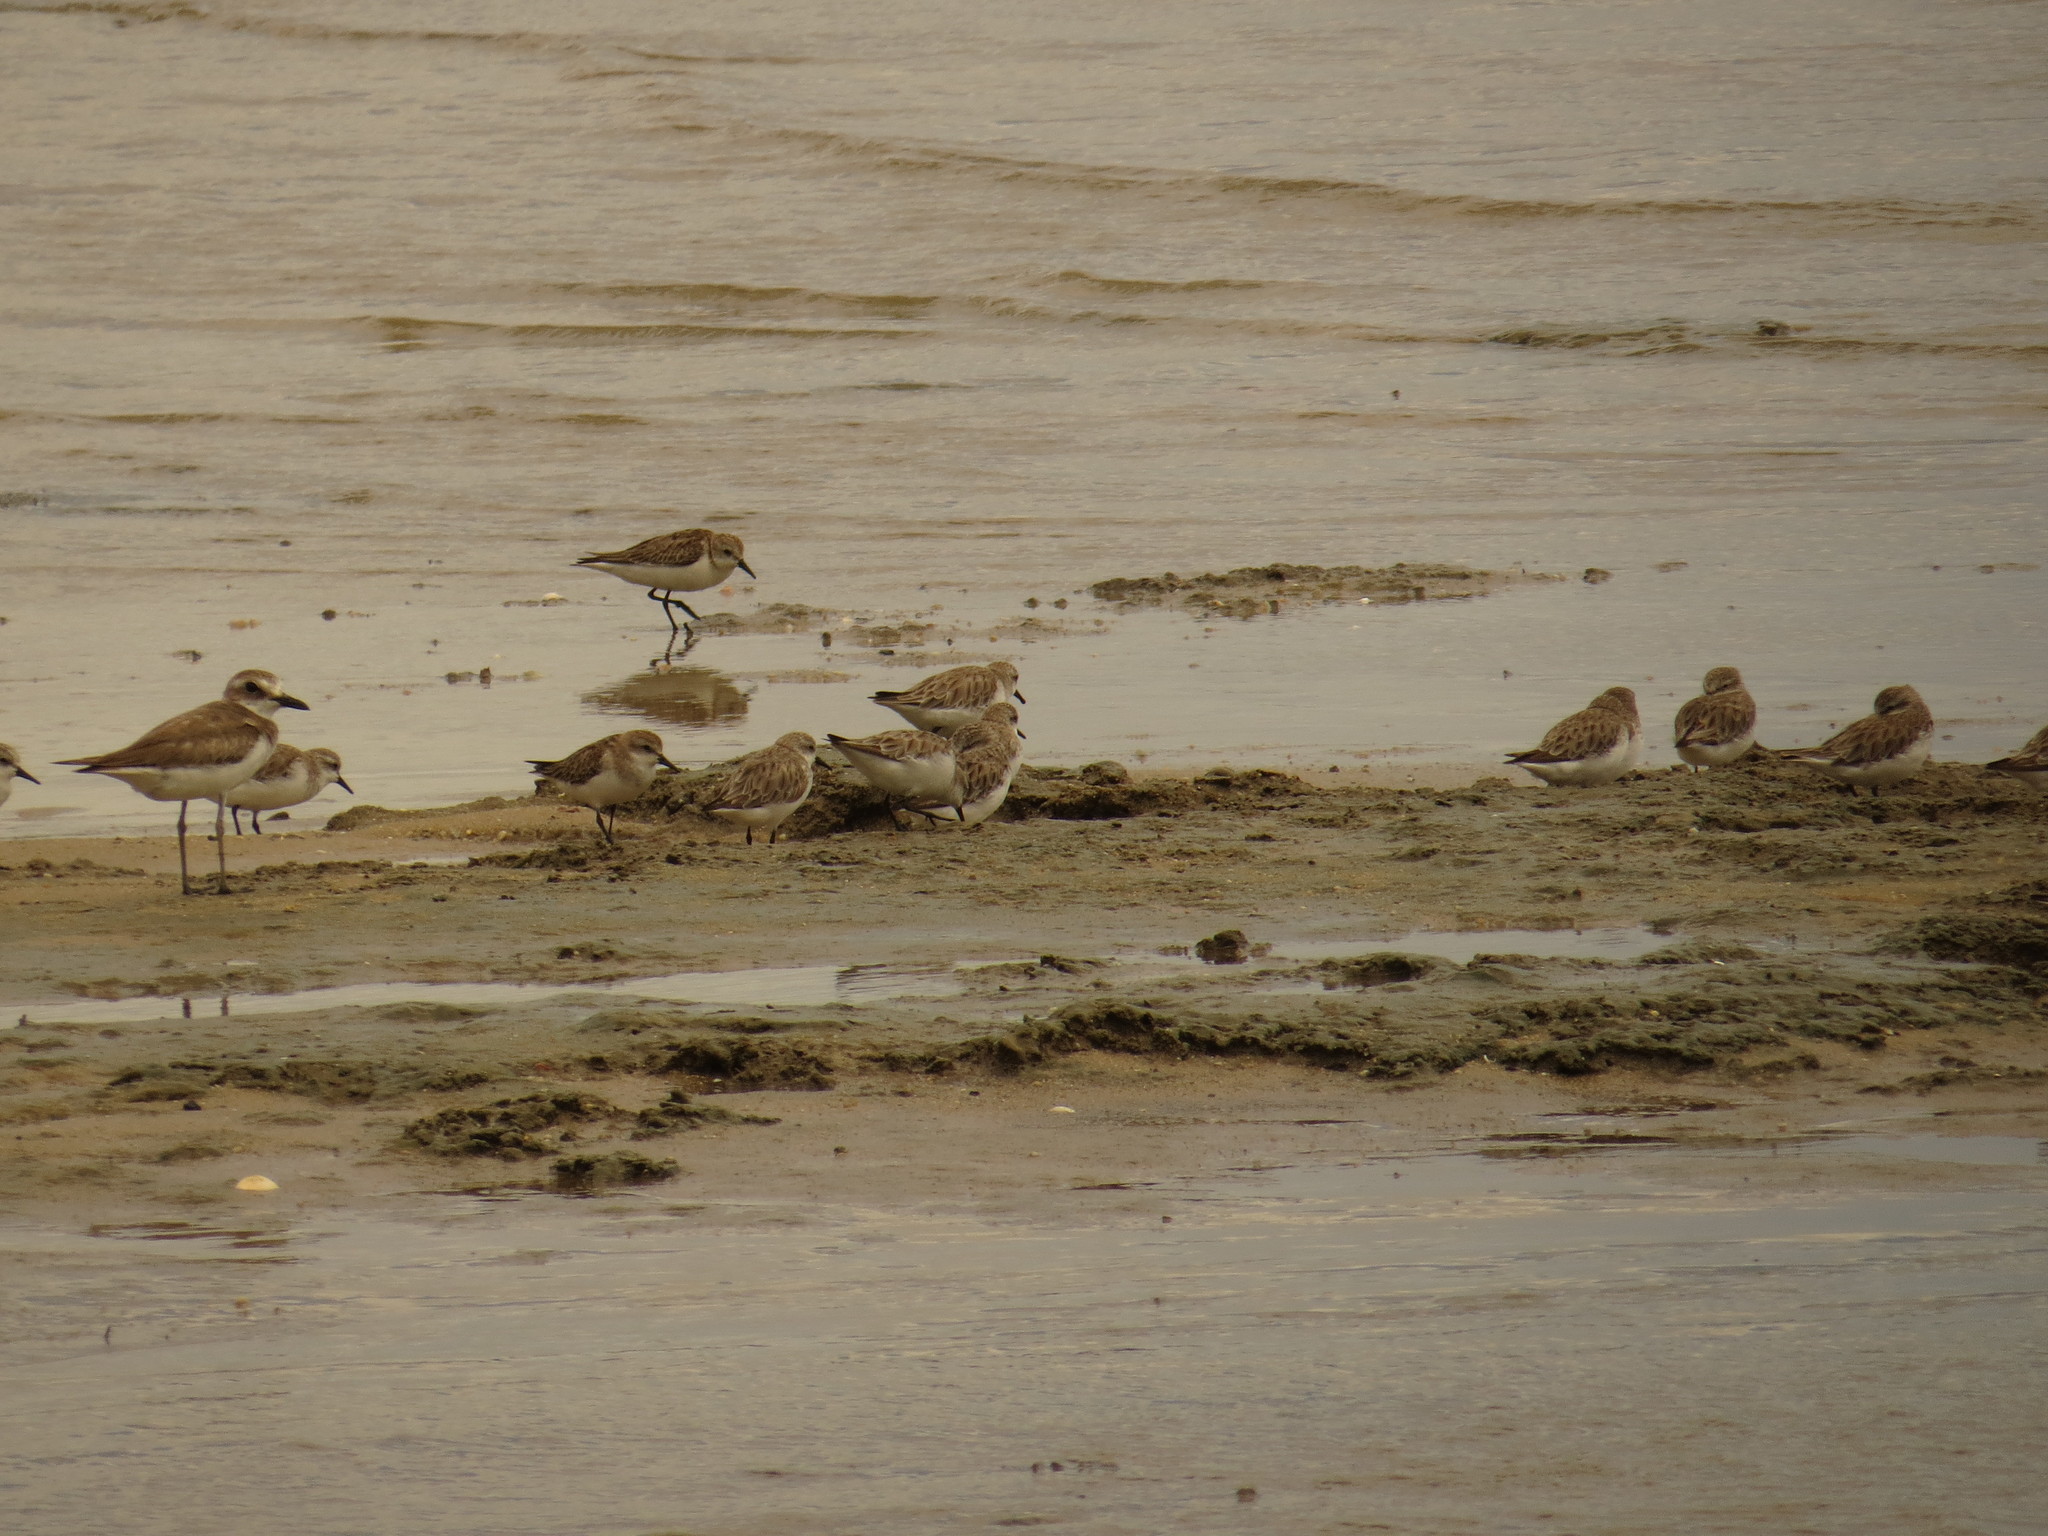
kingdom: Animalia
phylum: Chordata
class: Aves
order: Charadriiformes
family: Charadriidae
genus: Charadrius
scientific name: Charadrius leschenaultii
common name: Greater sand plover
